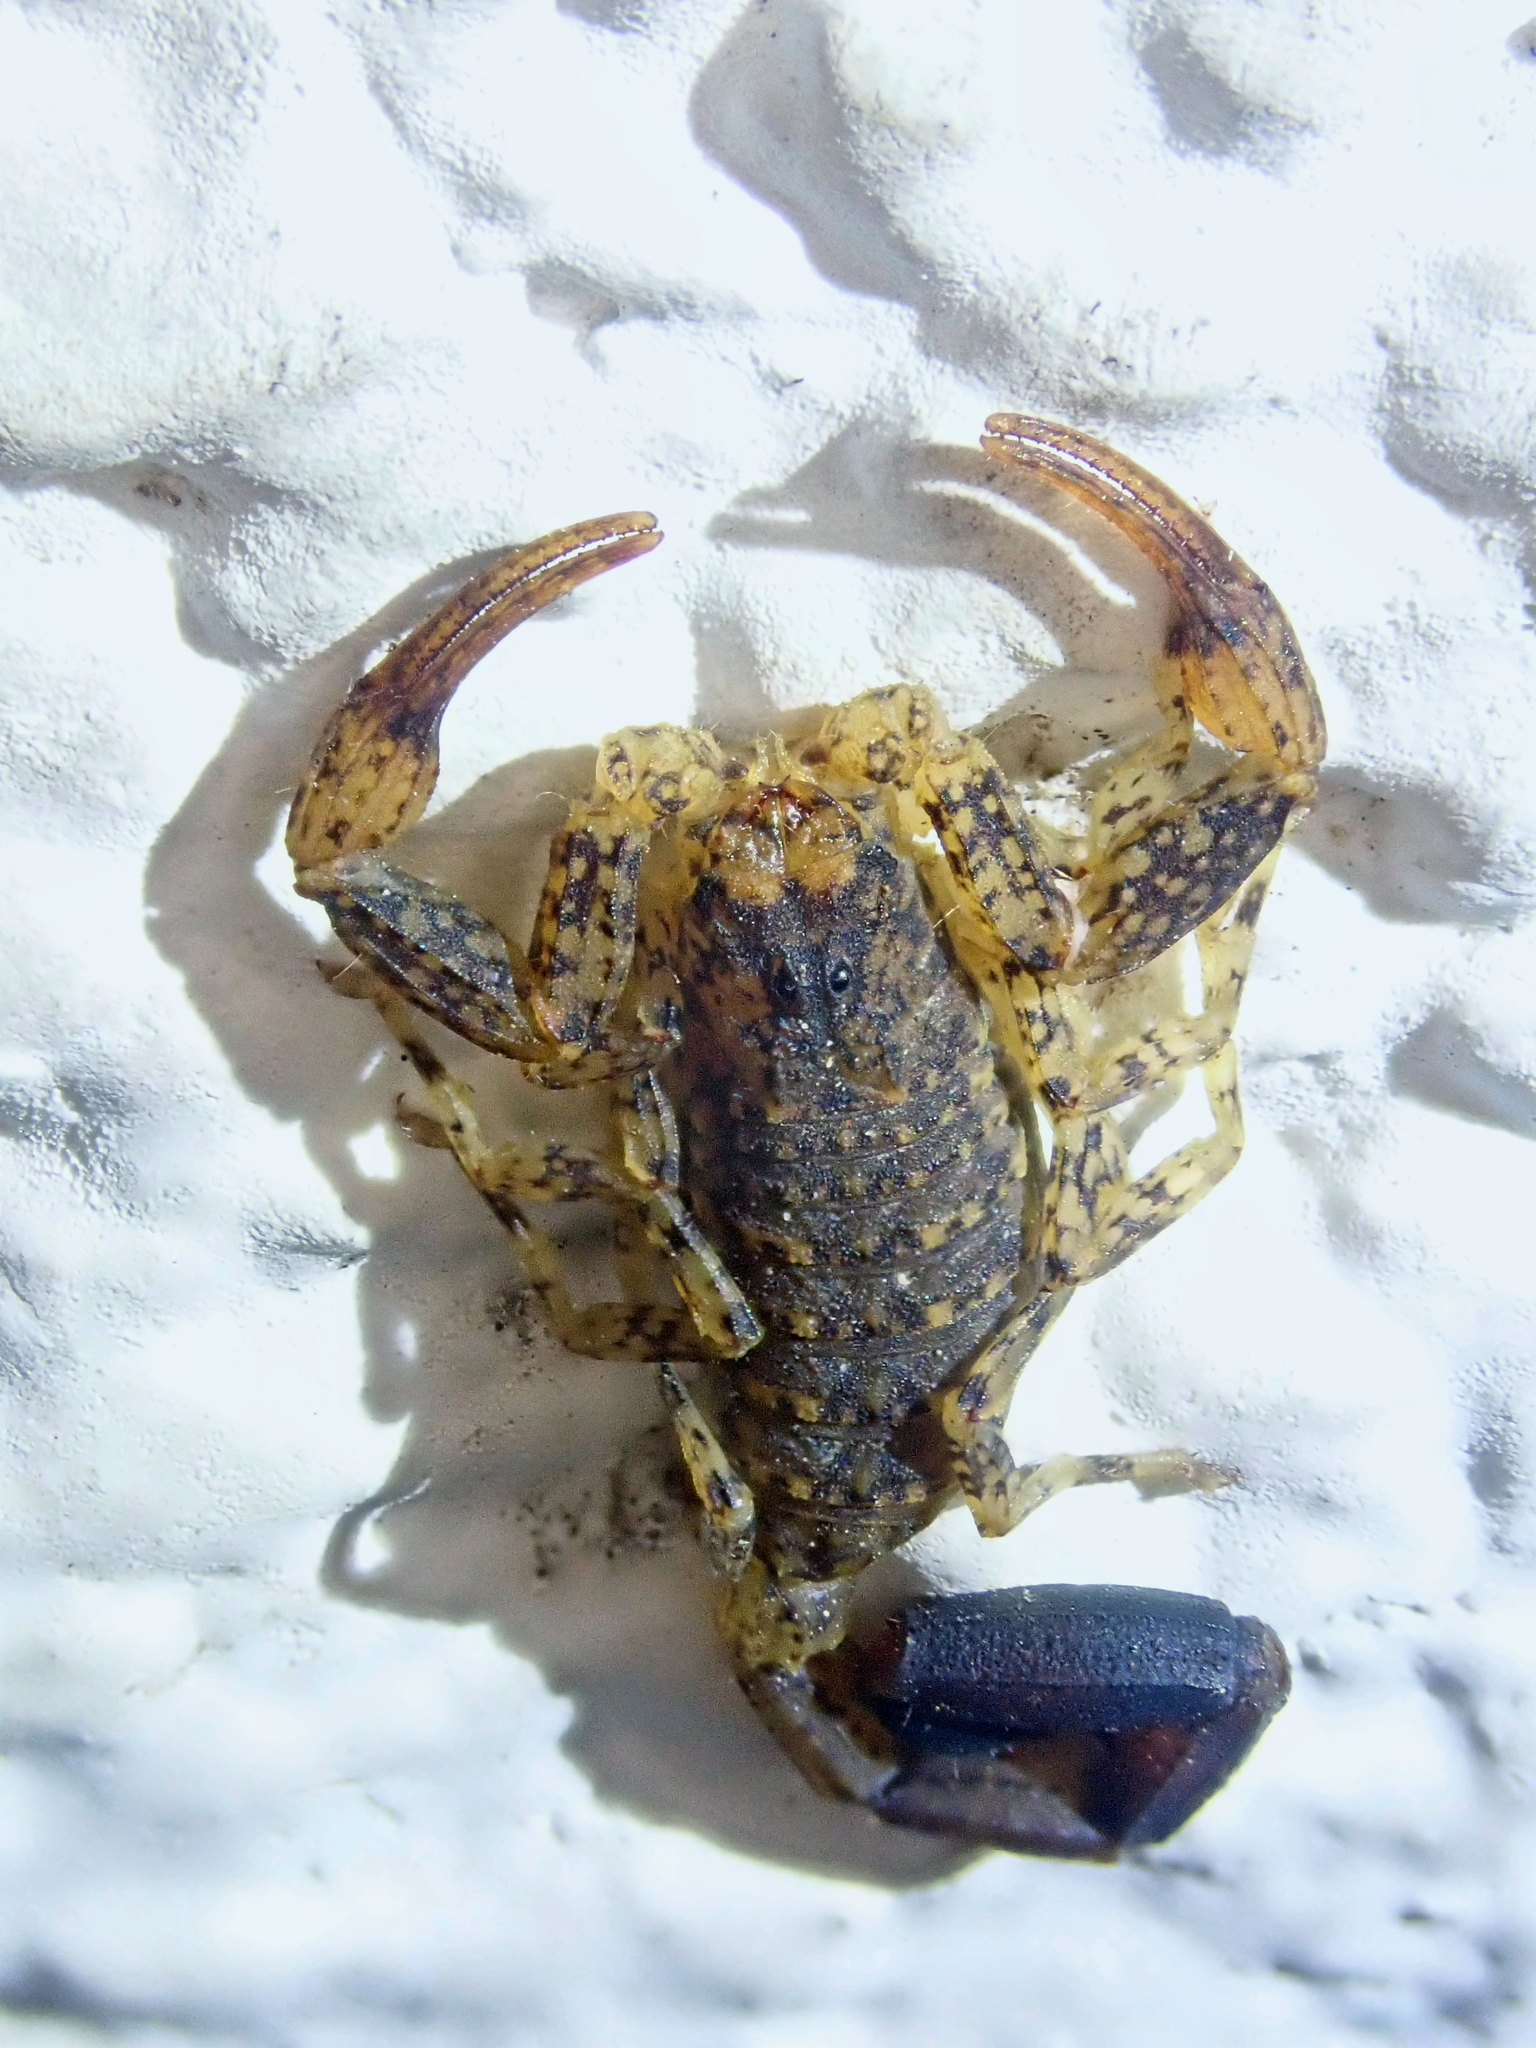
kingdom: Animalia
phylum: Arthropoda
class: Arachnida
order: Scorpiones
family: Buthidae
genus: Tityus
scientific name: Tityus mattogrossensis
